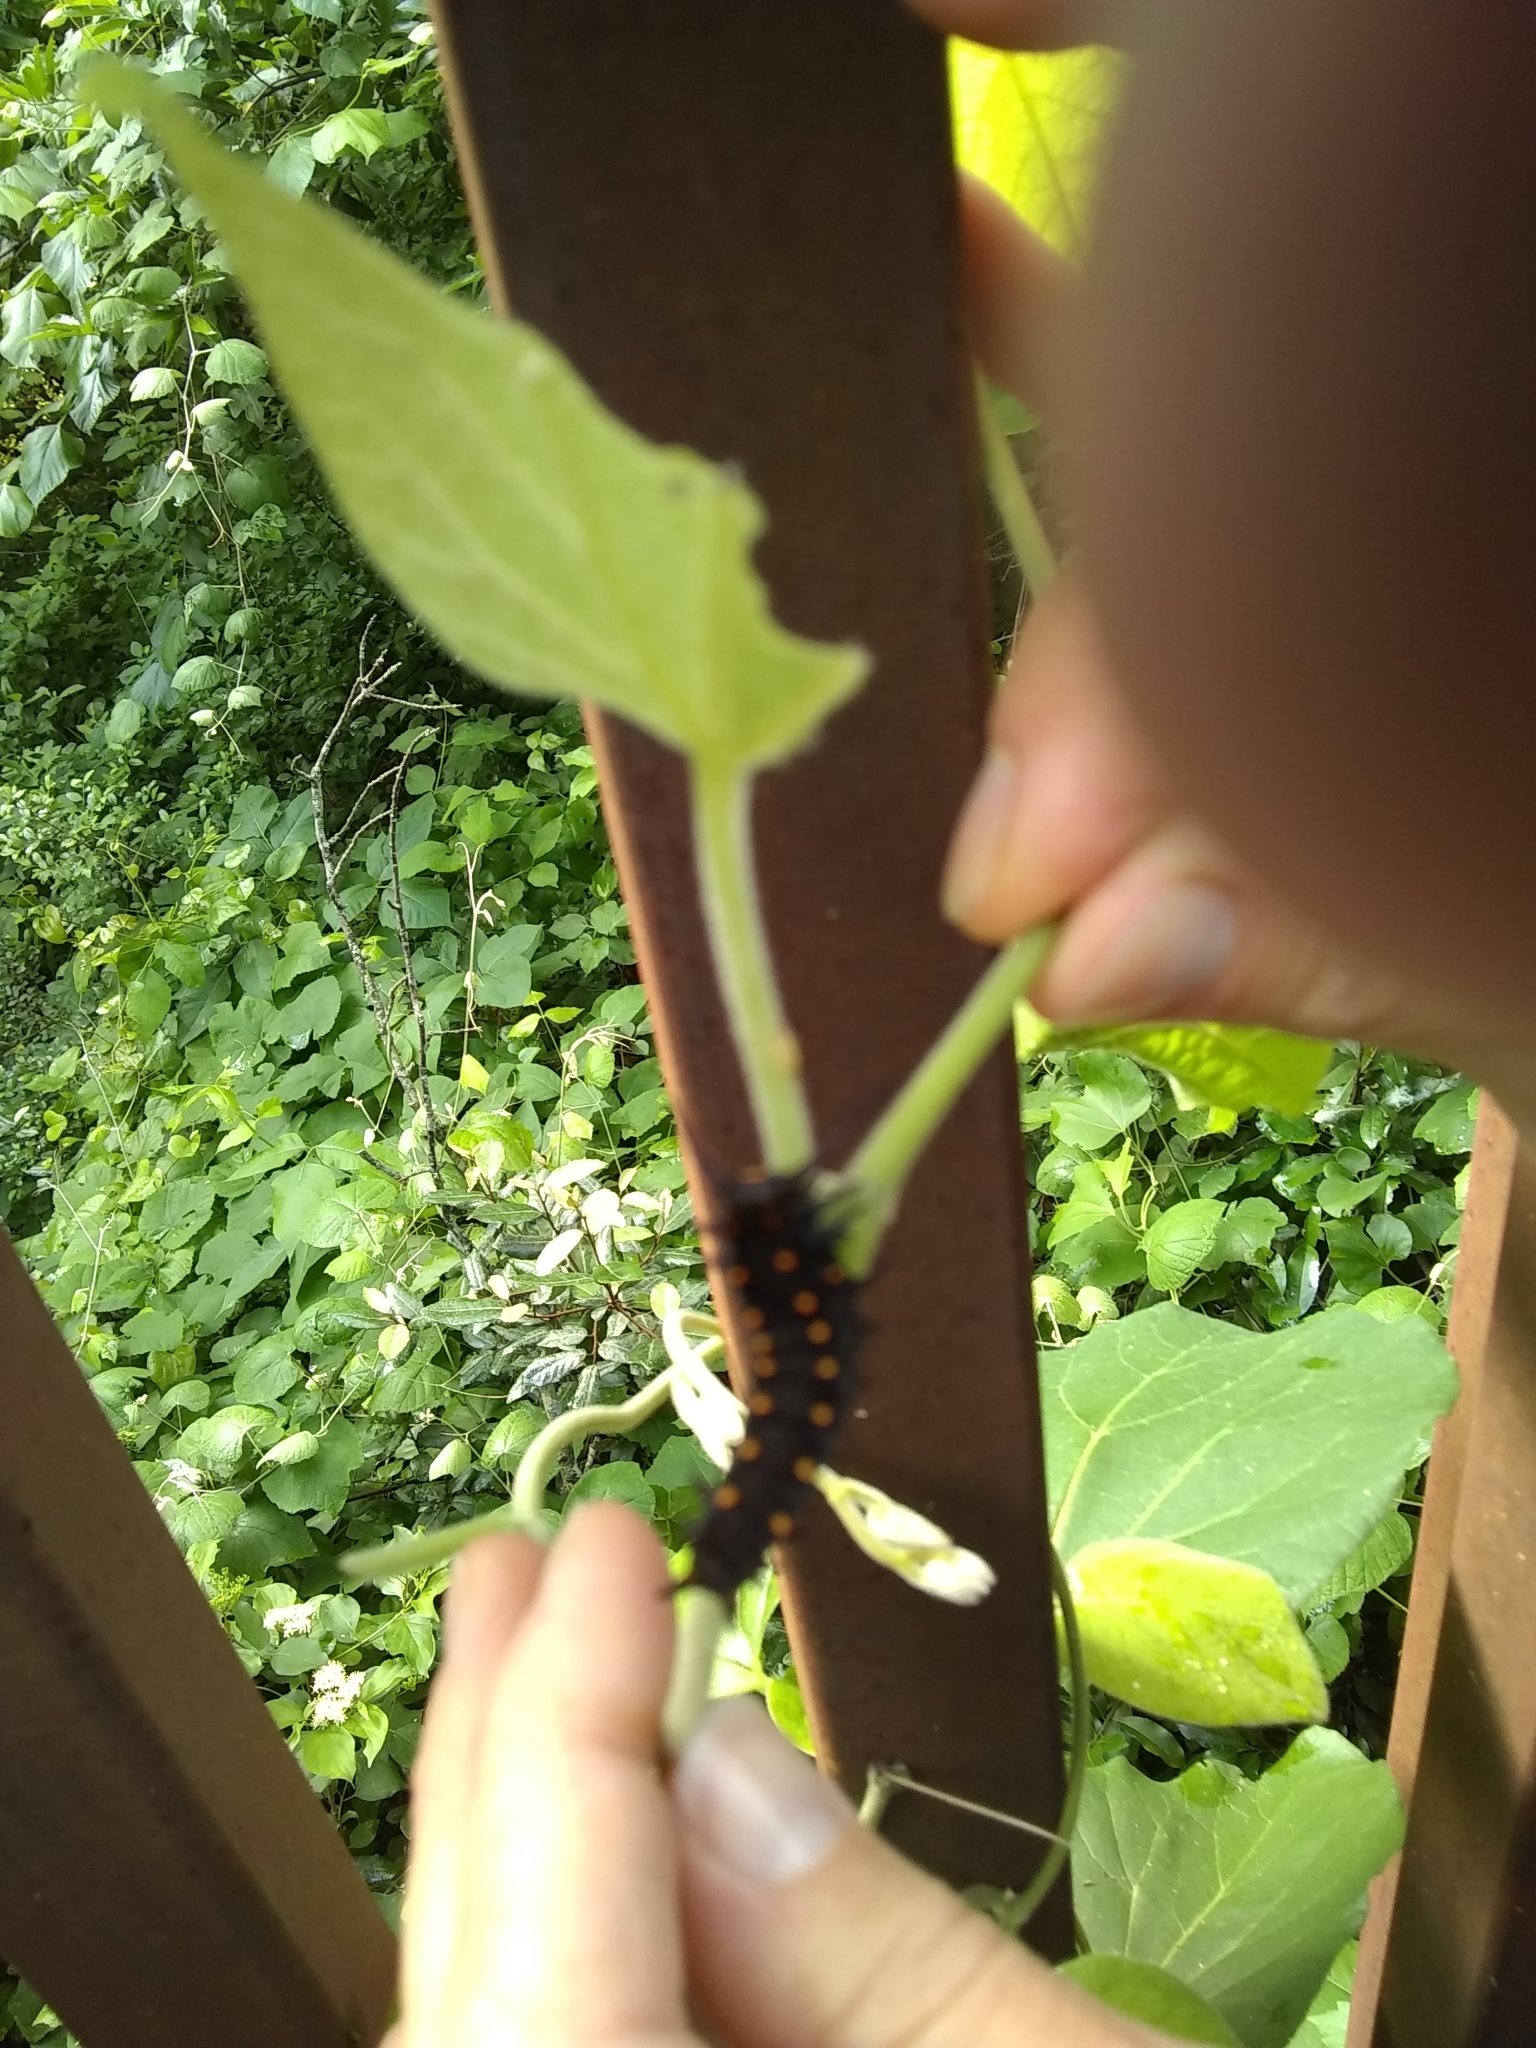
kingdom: Animalia
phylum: Arthropoda
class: Insecta
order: Lepidoptera
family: Papilionidae
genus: Battus
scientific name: Battus philenor
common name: Pipevine swallowtail
